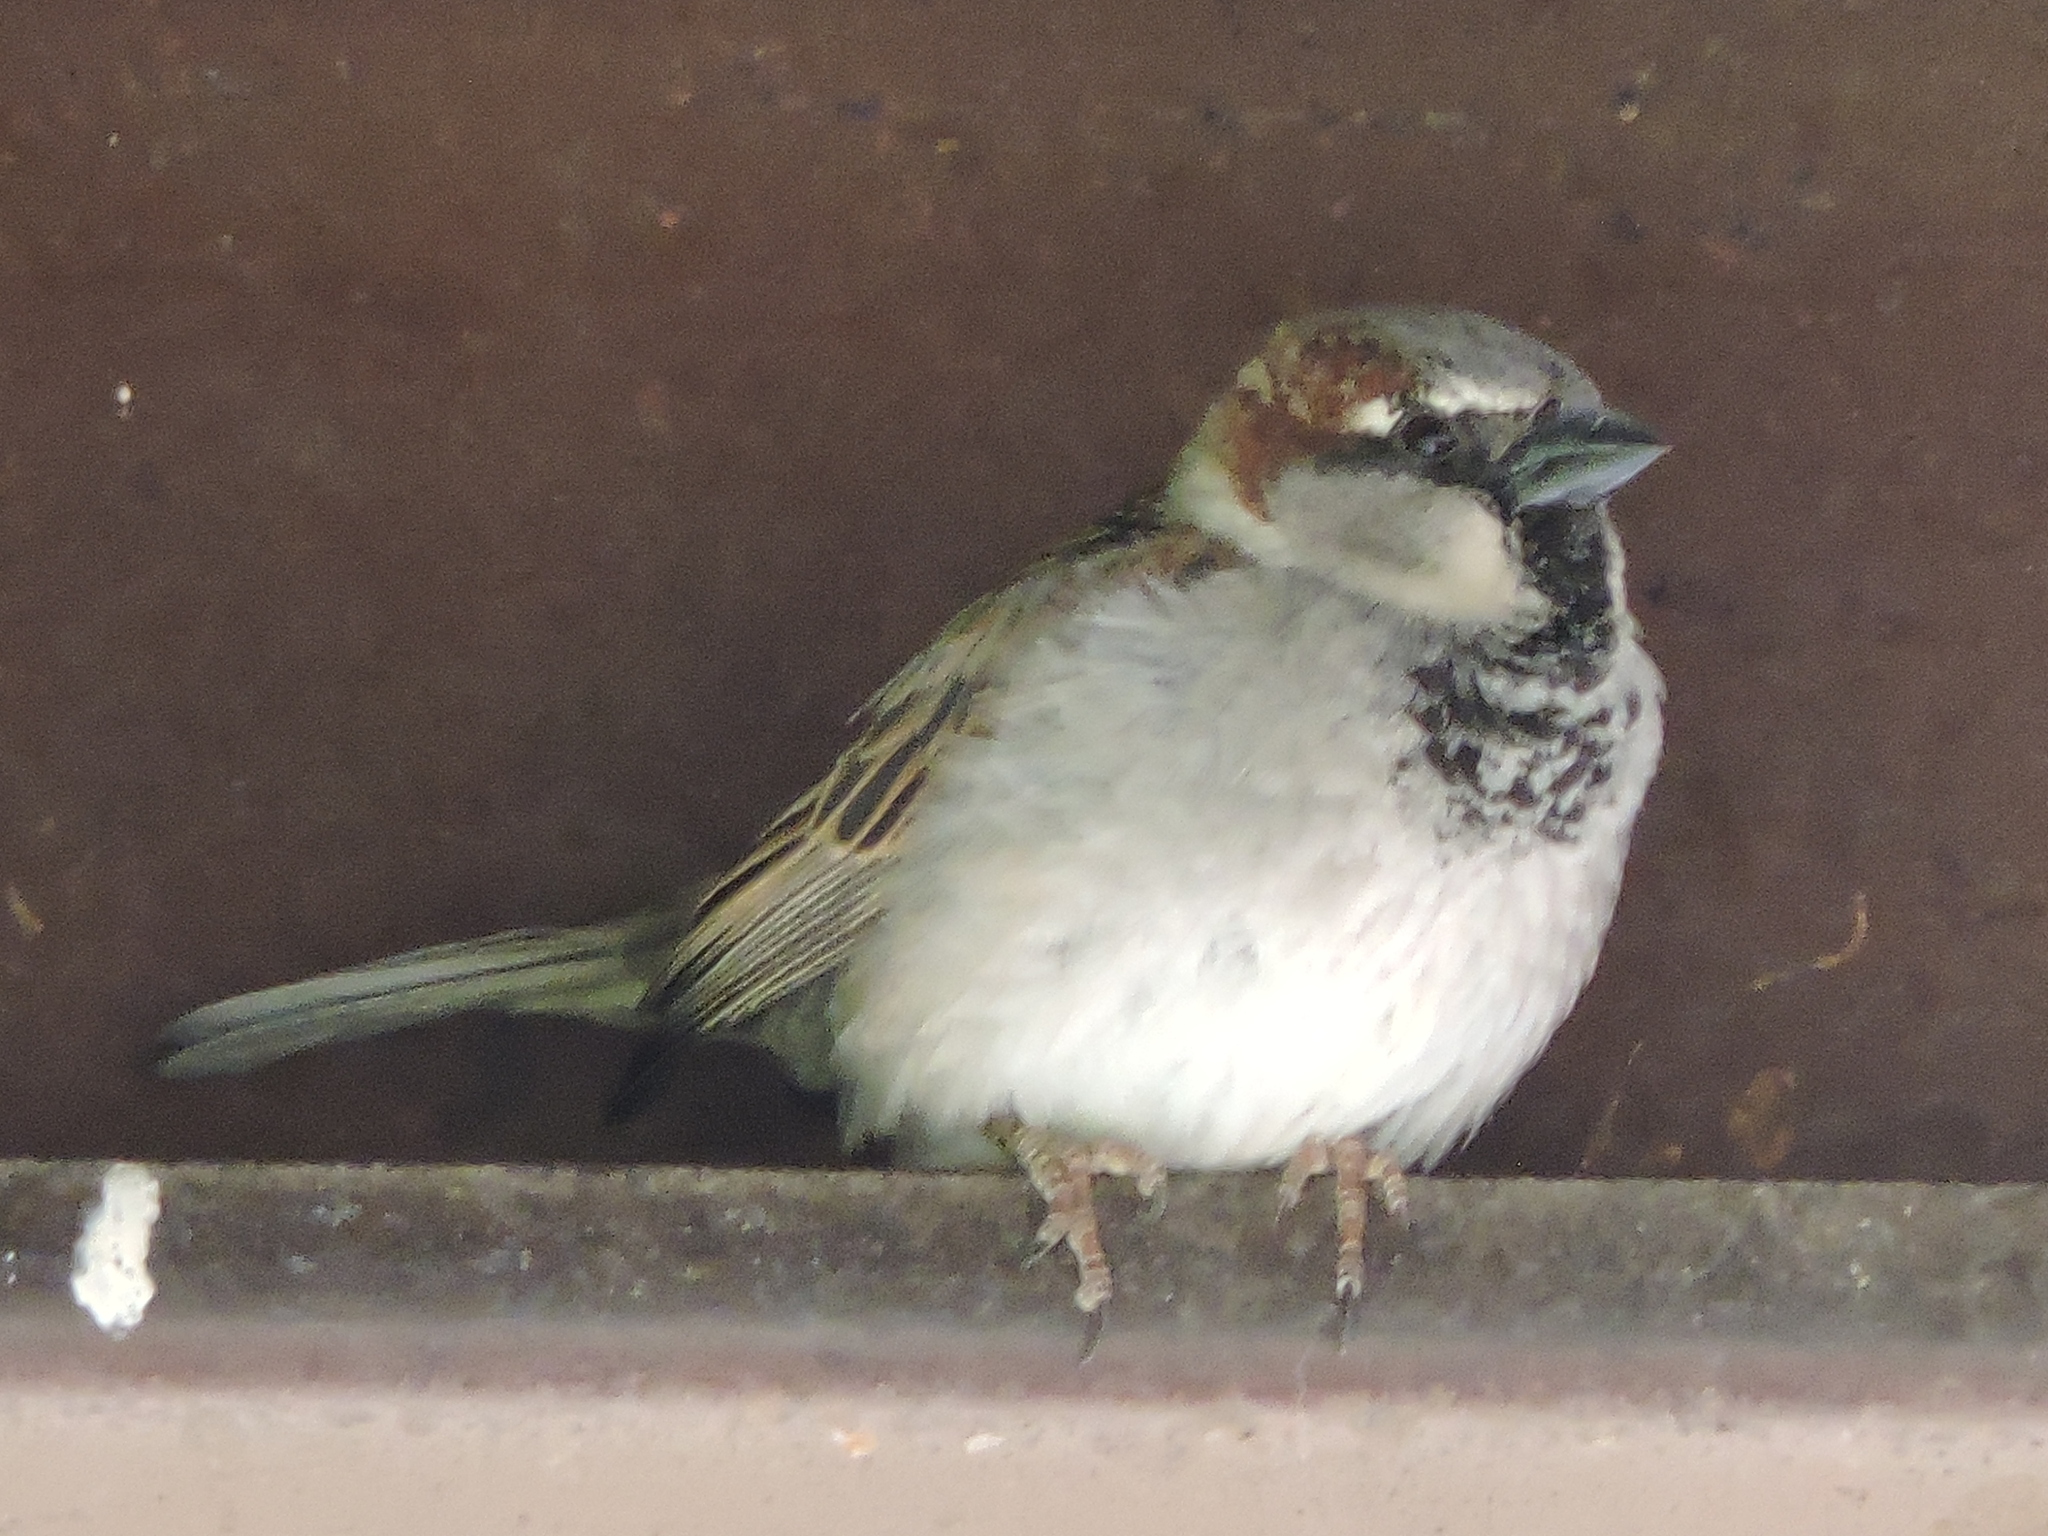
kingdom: Animalia
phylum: Chordata
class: Aves
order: Passeriformes
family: Passeridae
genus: Passer
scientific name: Passer domesticus
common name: House sparrow
